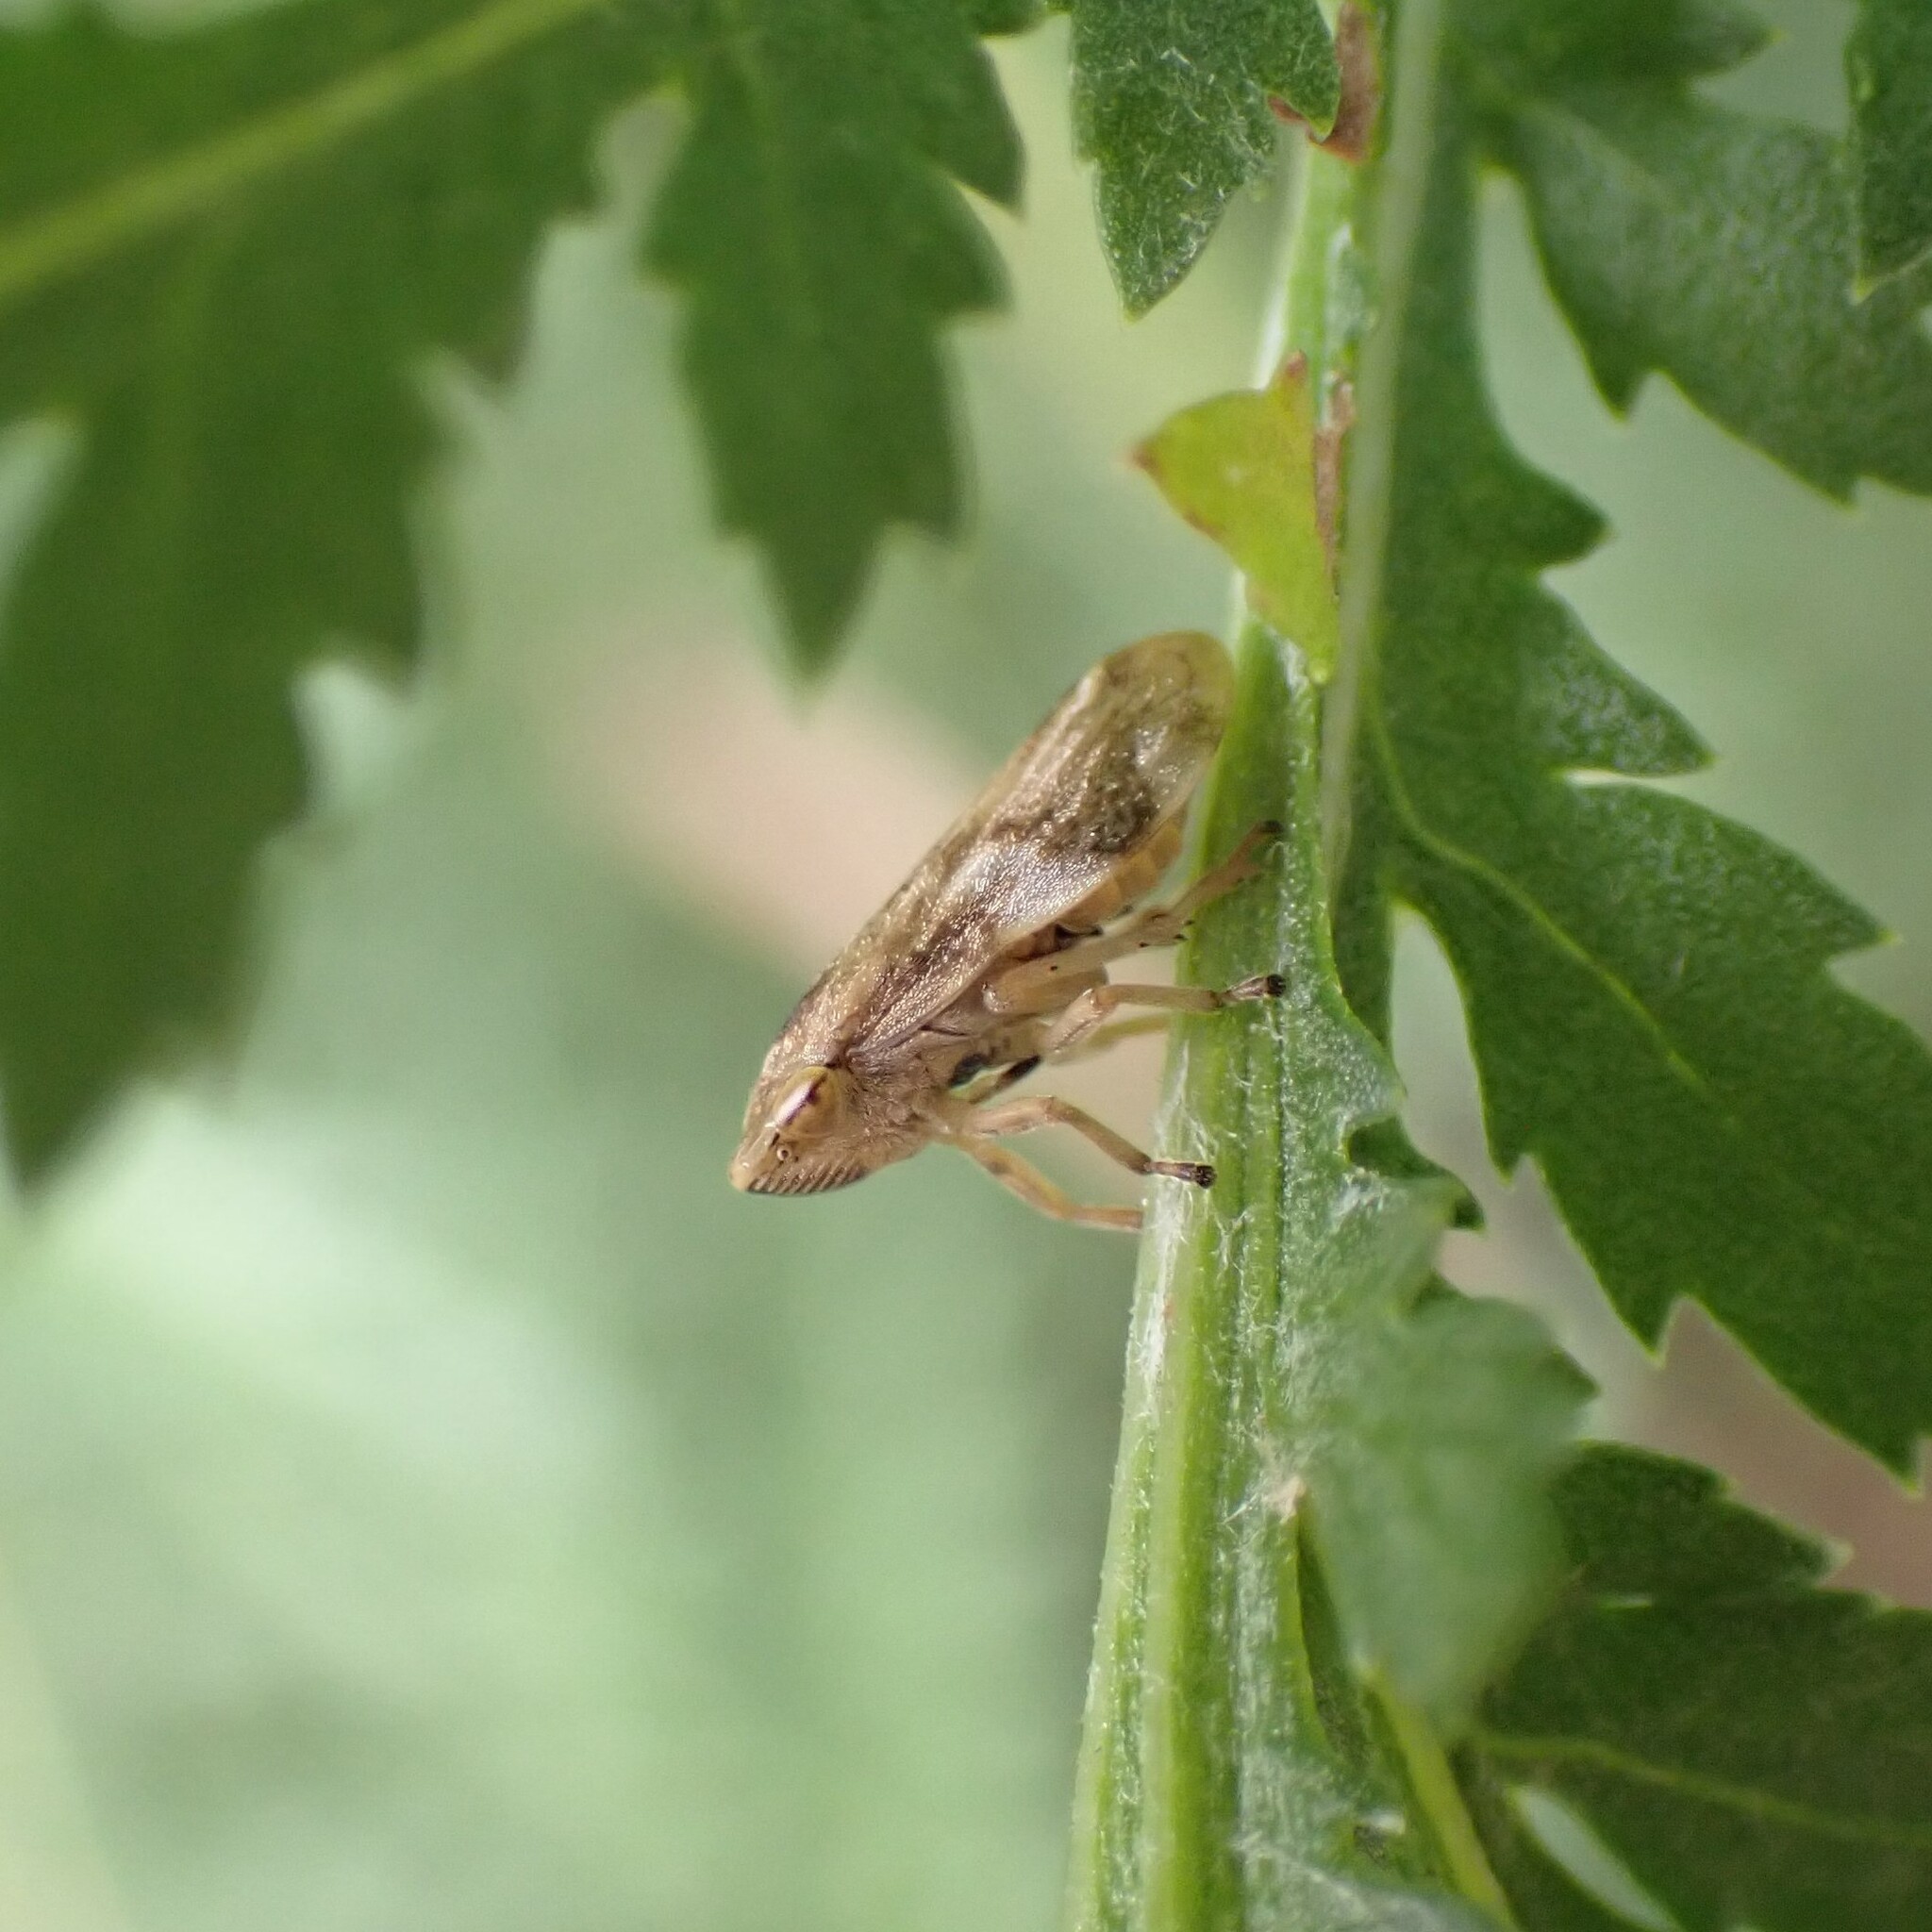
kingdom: Animalia
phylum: Arthropoda
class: Insecta
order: Hemiptera
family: Aphrophoridae
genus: Philaenus
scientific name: Philaenus spumarius
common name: Meadow spittlebug
